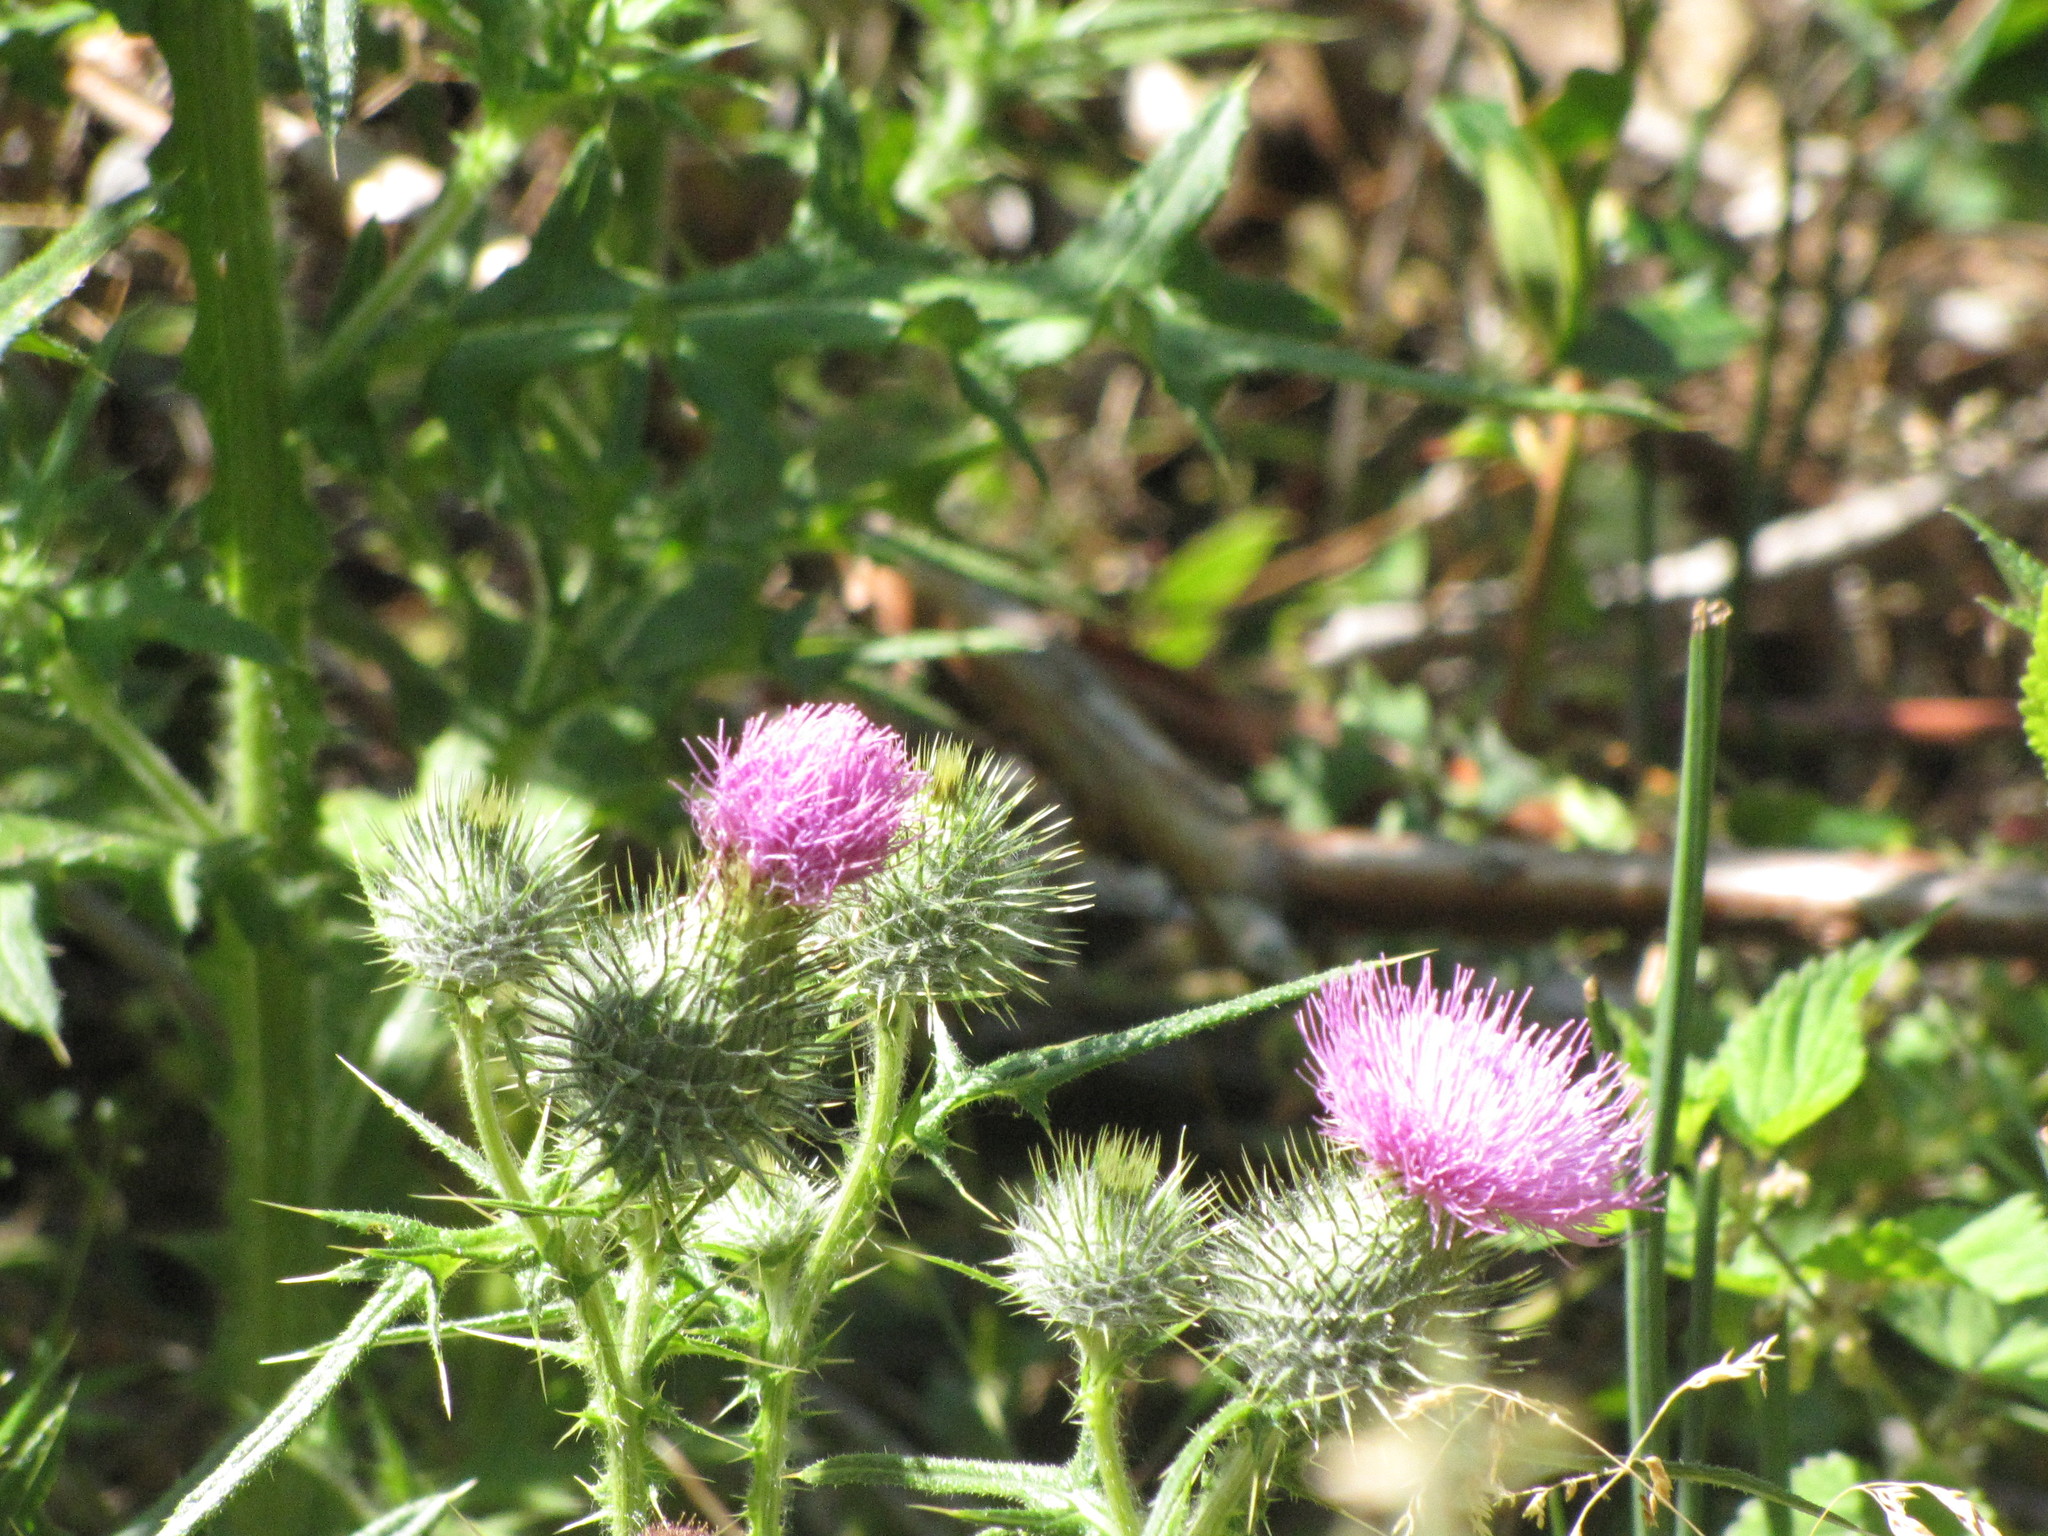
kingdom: Plantae
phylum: Tracheophyta
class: Magnoliopsida
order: Asterales
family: Asteraceae
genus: Cirsium
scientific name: Cirsium vulgare
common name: Bull thistle
